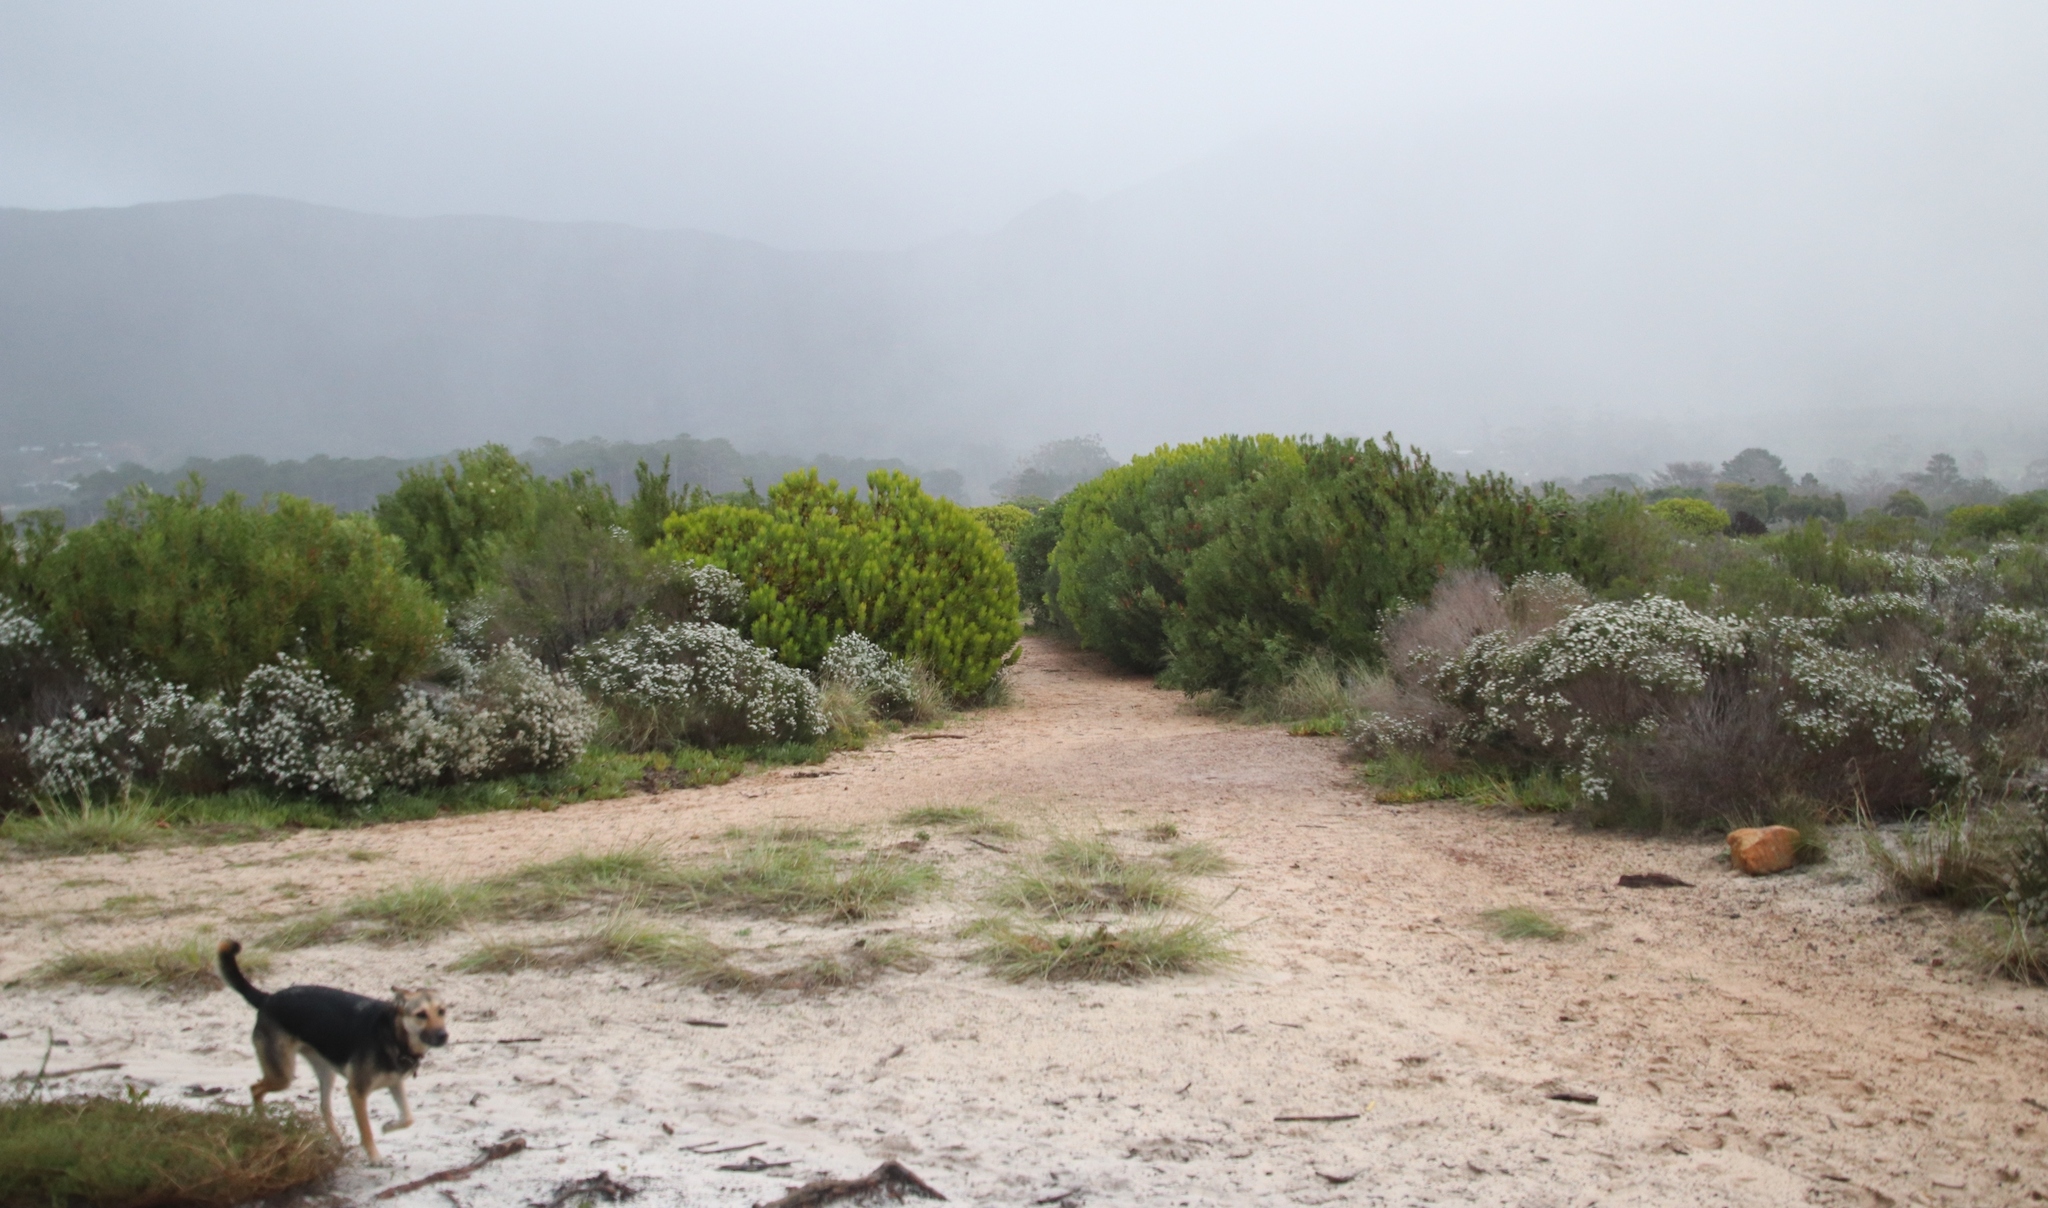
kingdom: Plantae
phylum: Tracheophyta
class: Magnoliopsida
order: Proteales
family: Proteaceae
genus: Leucadendron
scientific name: Leucadendron laureolum
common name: Golden sunshinebush
